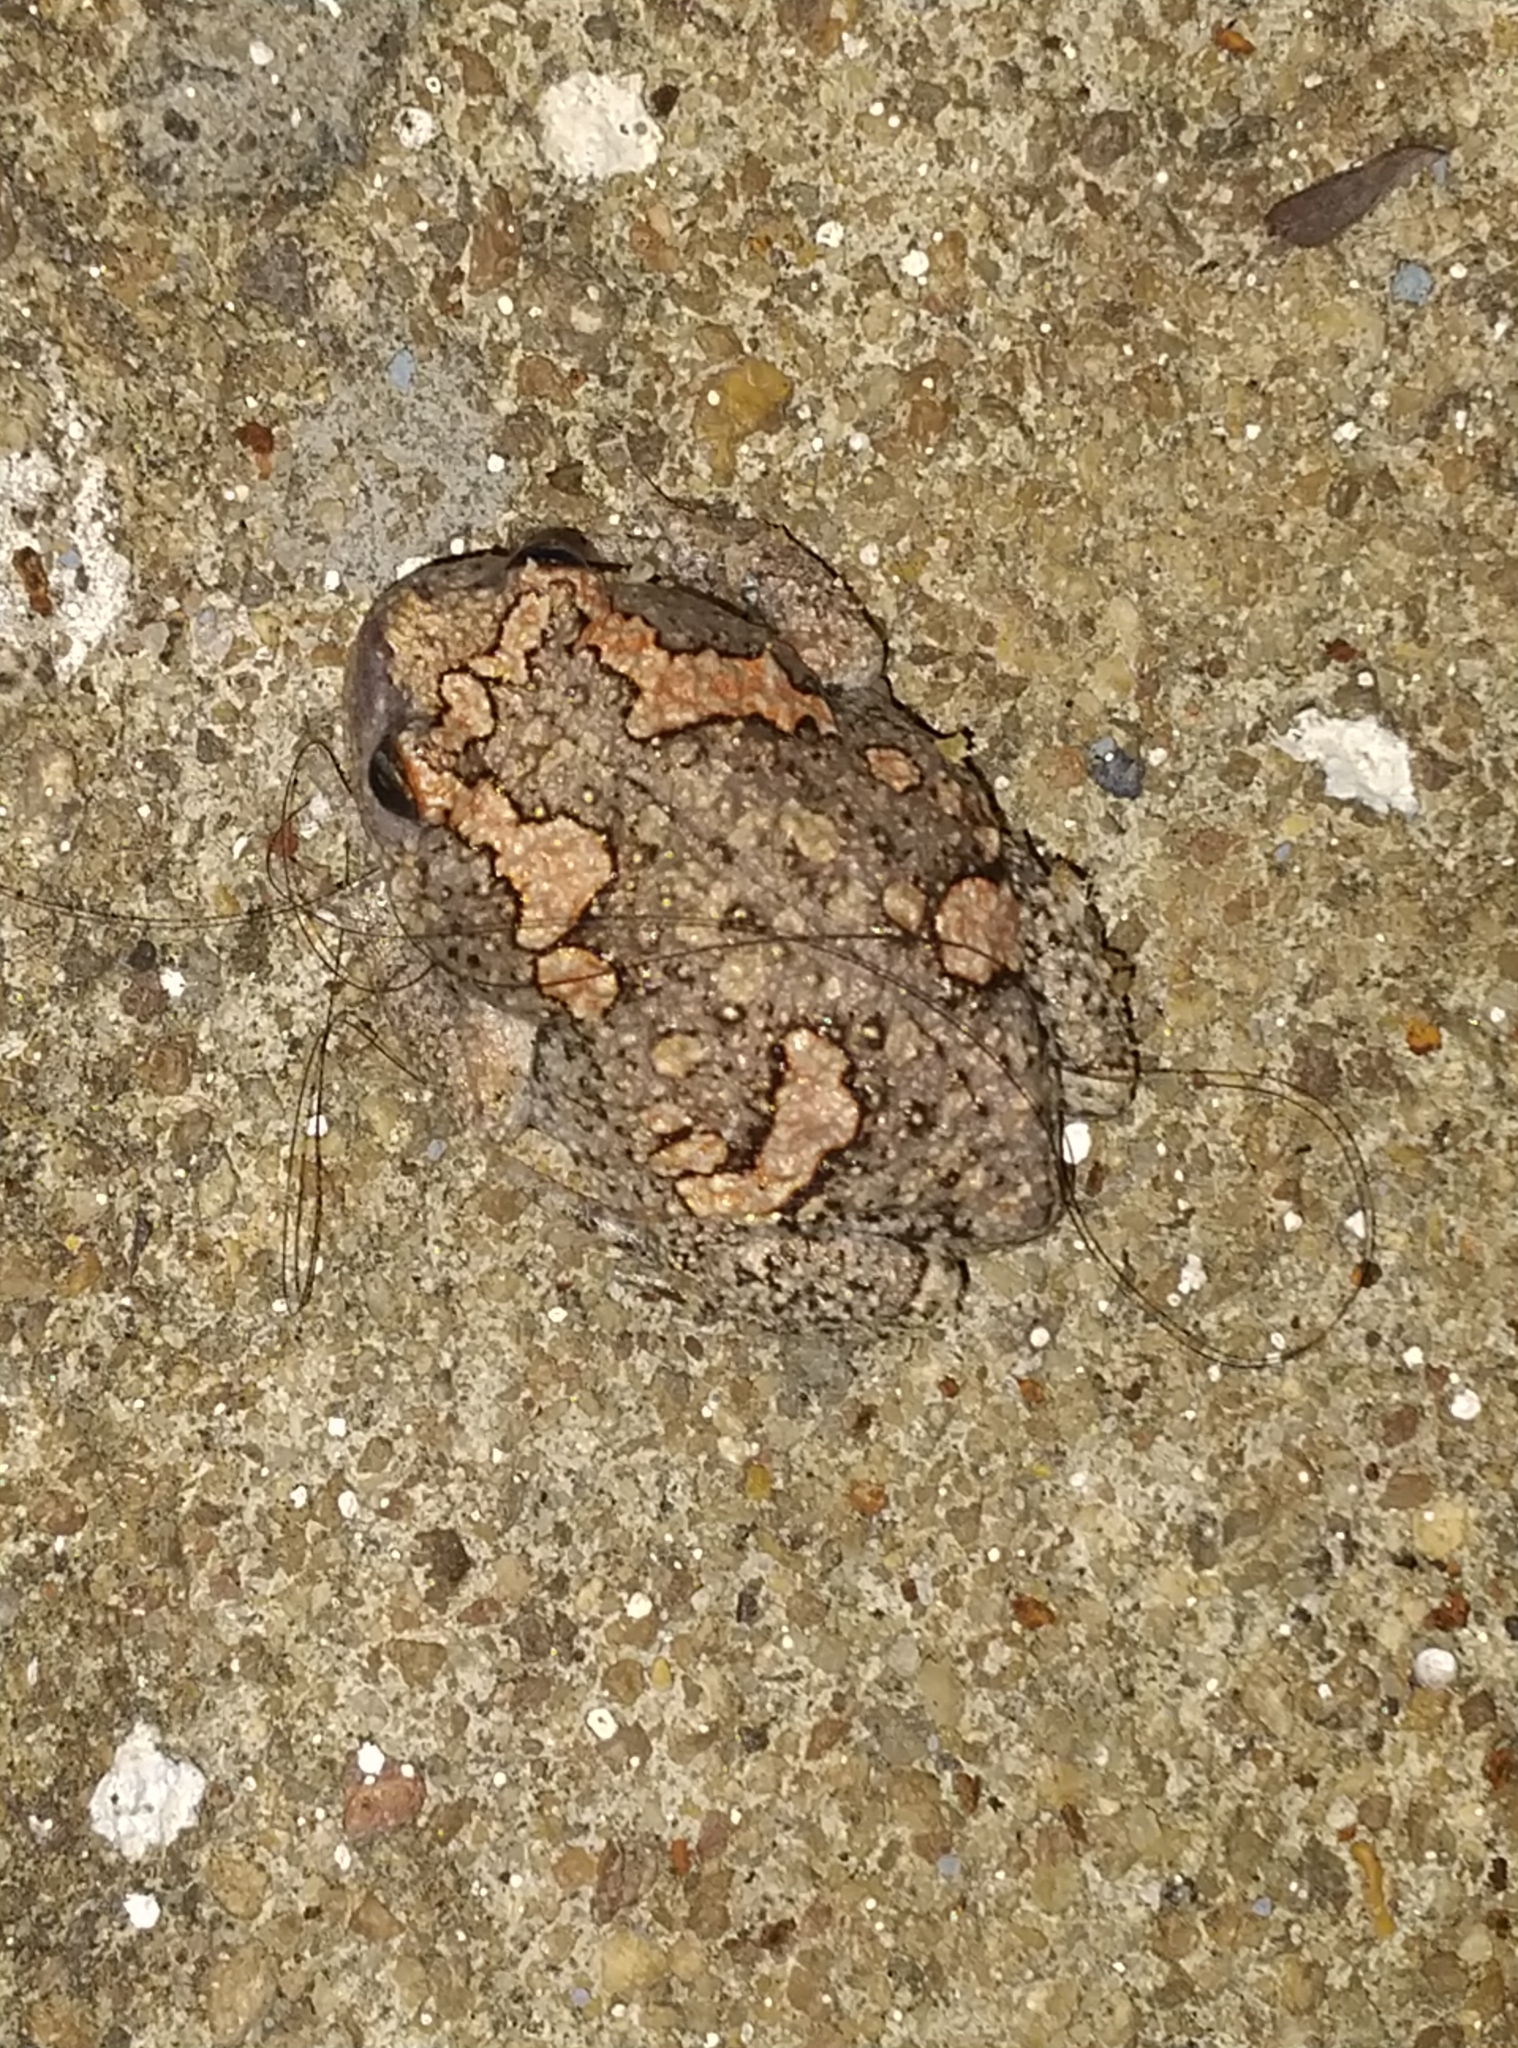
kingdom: Animalia
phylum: Chordata
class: Amphibia
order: Anura
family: Microhylidae
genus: Uperodon
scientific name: Uperodon taprobanicus
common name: Ceylon kaloula
